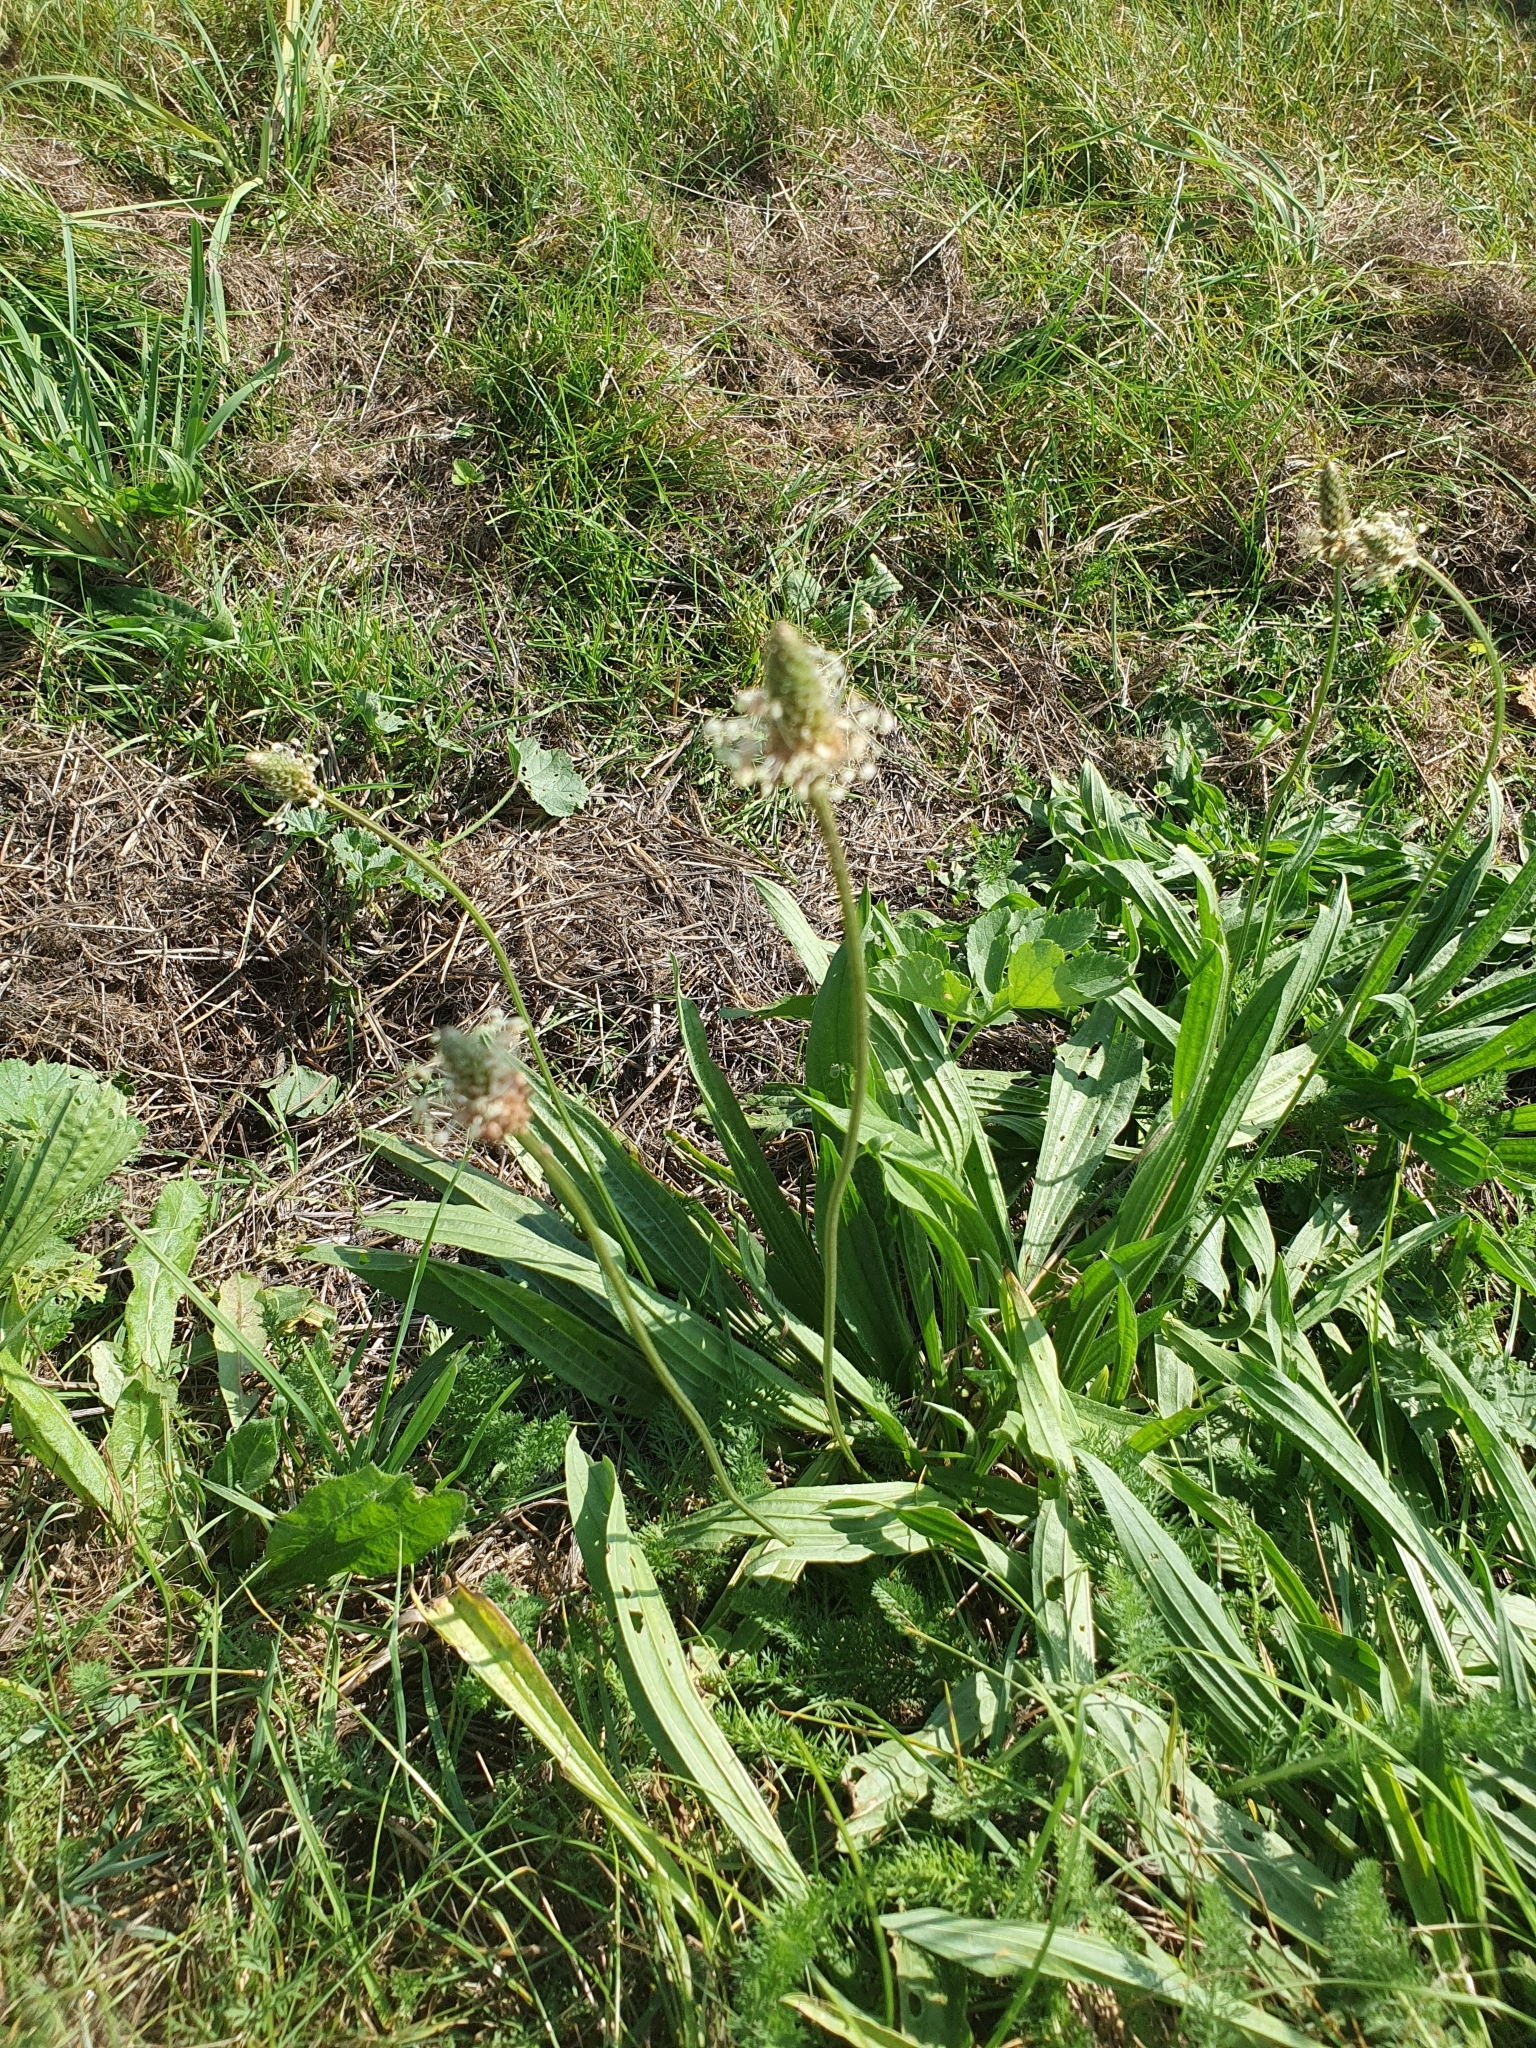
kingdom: Plantae
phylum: Tracheophyta
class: Magnoliopsida
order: Lamiales
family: Plantaginaceae
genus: Plantago
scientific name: Plantago lanceolata
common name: Ribwort plantain
